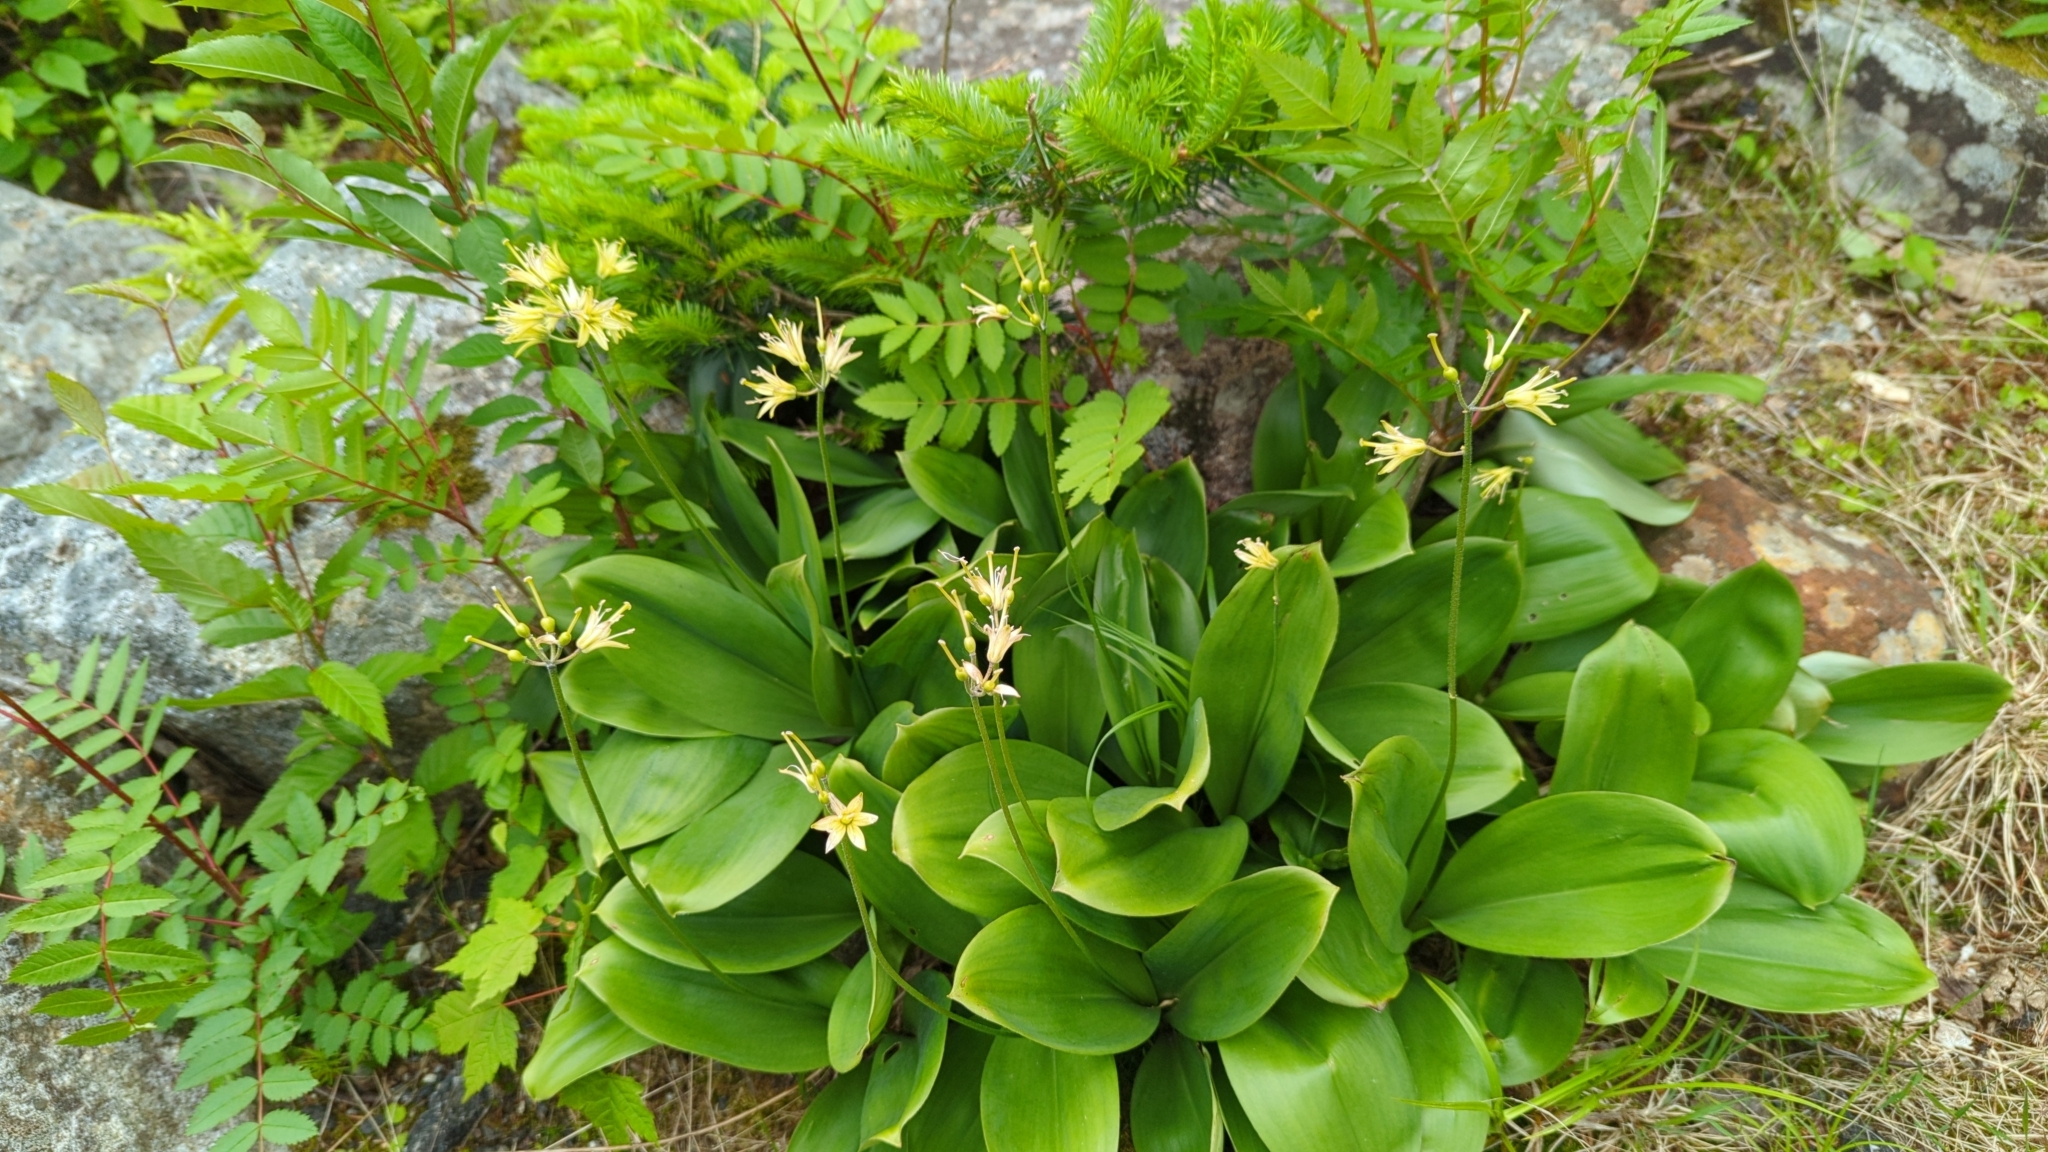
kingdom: Plantae
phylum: Tracheophyta
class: Liliopsida
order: Liliales
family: Liliaceae
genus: Clintonia
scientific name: Clintonia borealis
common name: Yellow clintonia
